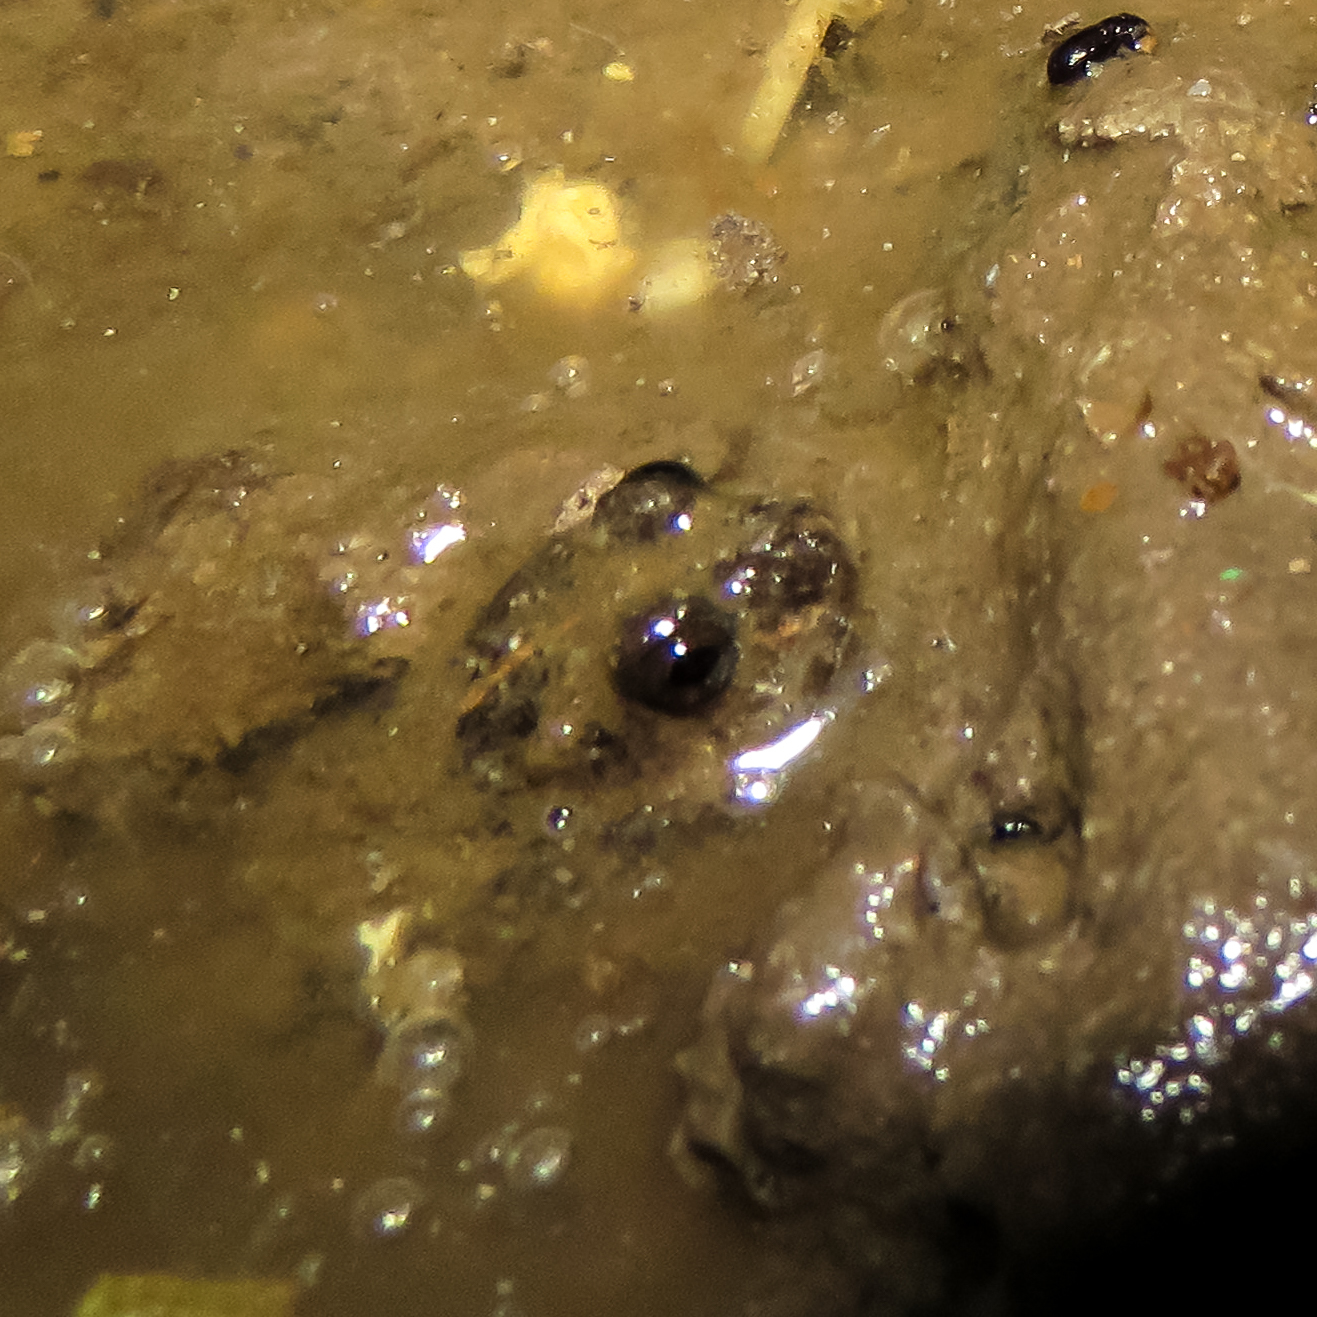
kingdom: Animalia
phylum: Chordata
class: Amphibia
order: Anura
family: Dicroglossidae
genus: Occidozyga
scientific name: Occidozyga martensii
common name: Marten’s oriental frog/round-tongued floating frog
